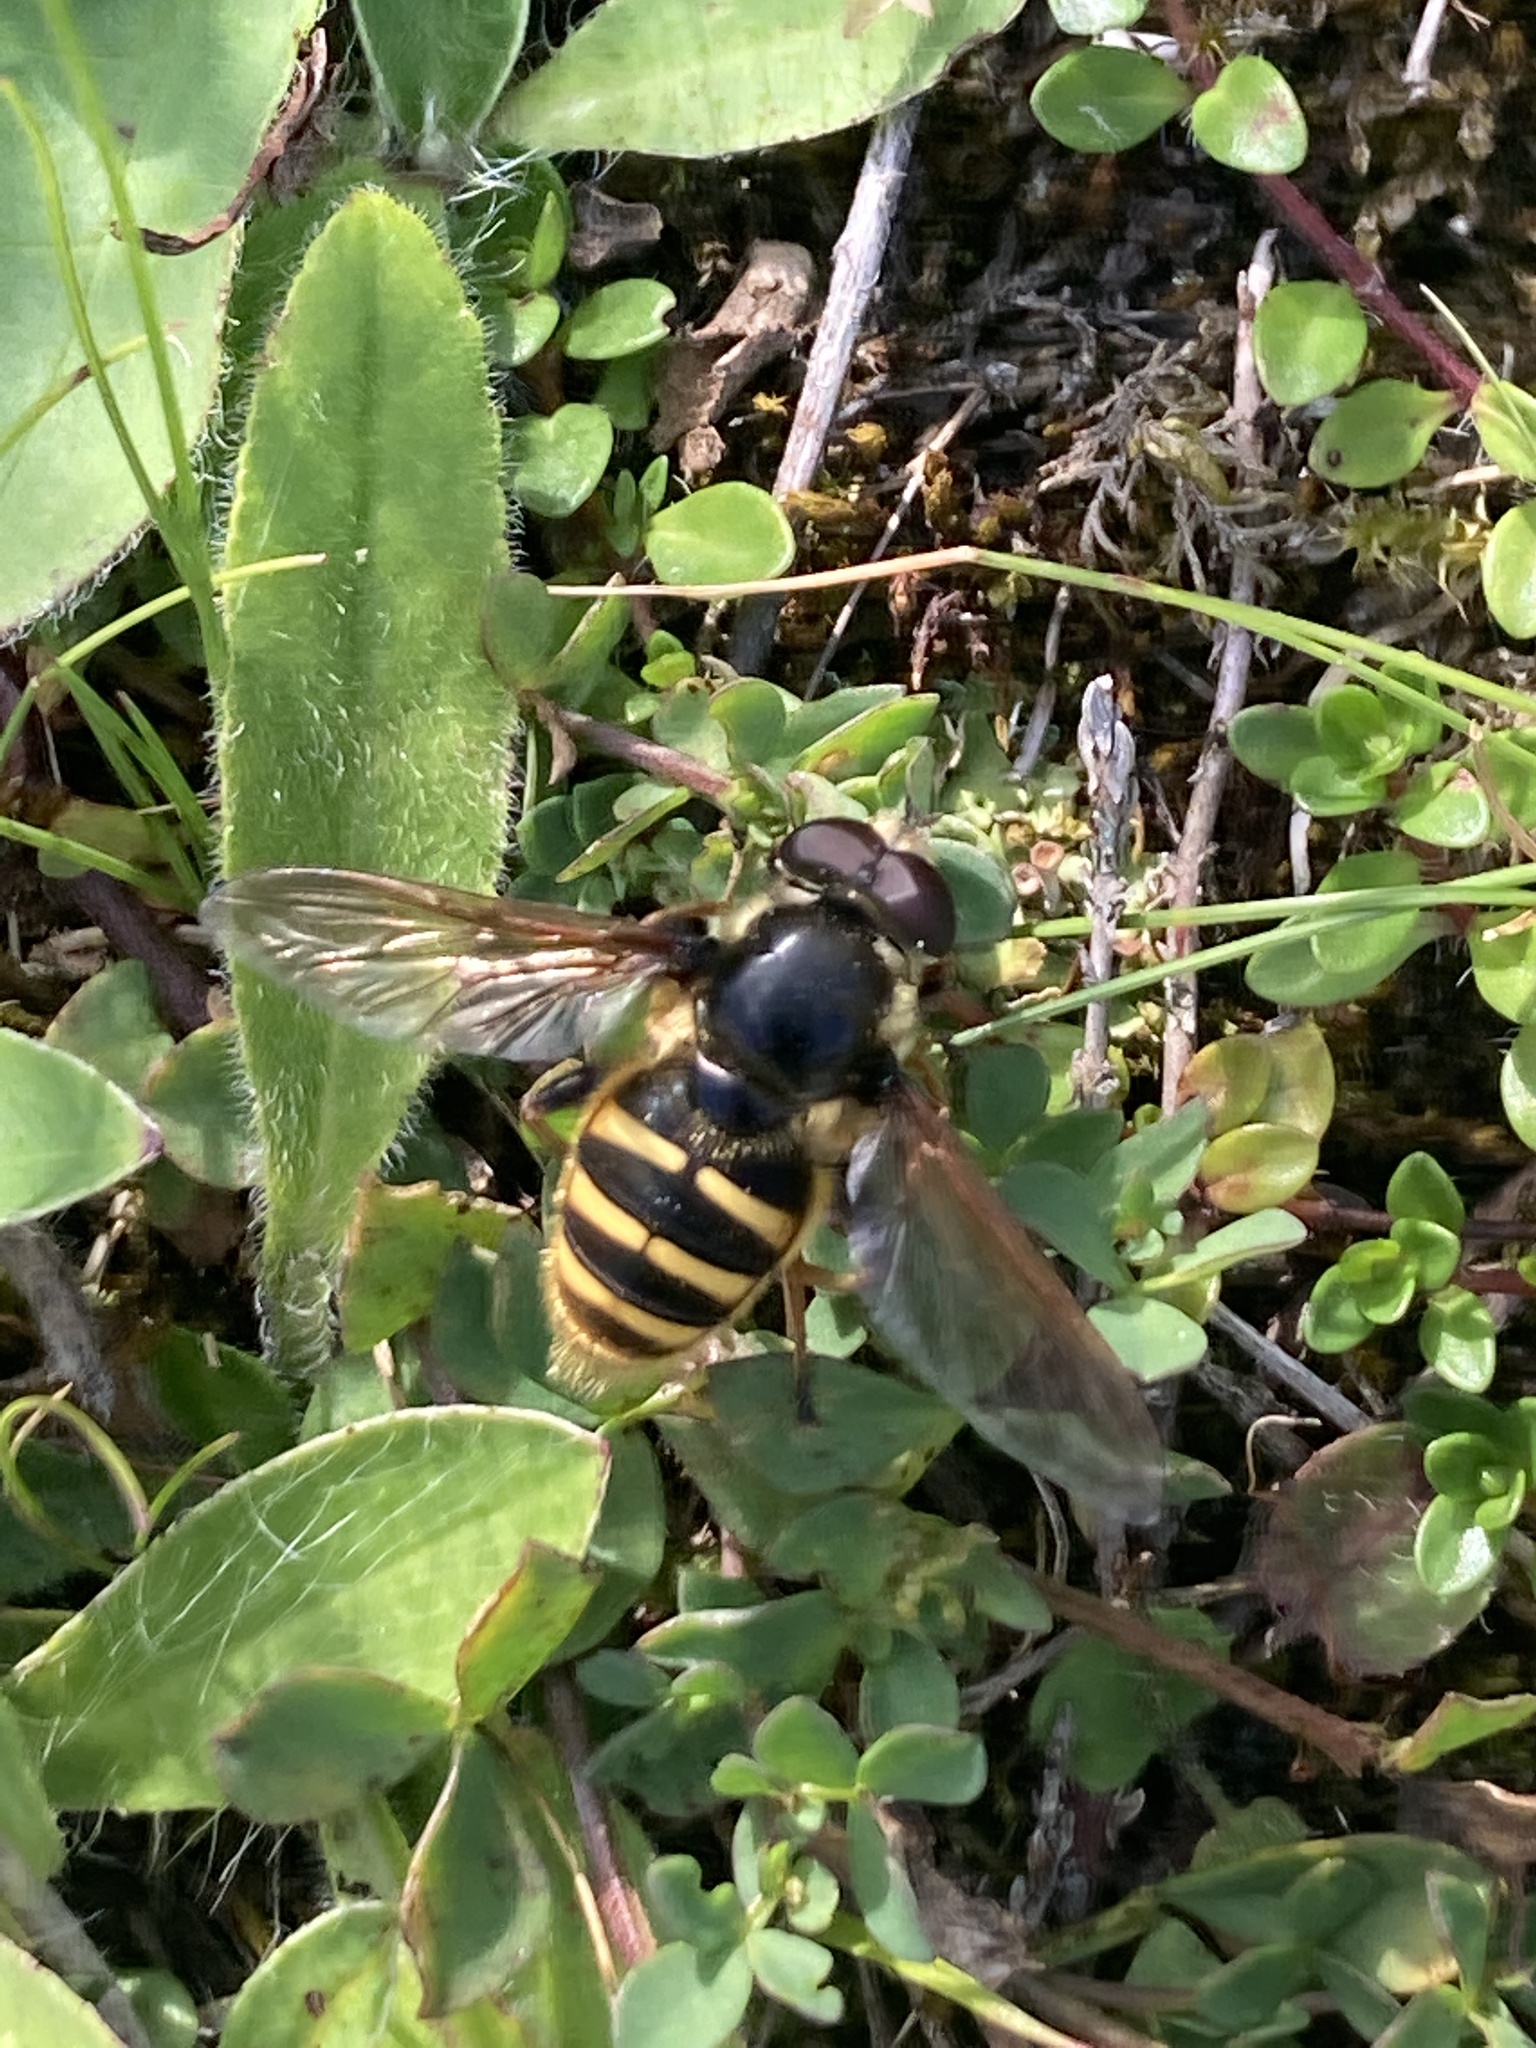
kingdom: Animalia
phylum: Arthropoda
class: Insecta
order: Diptera
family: Syrphidae
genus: Sericomyia
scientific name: Sericomyia silentis
